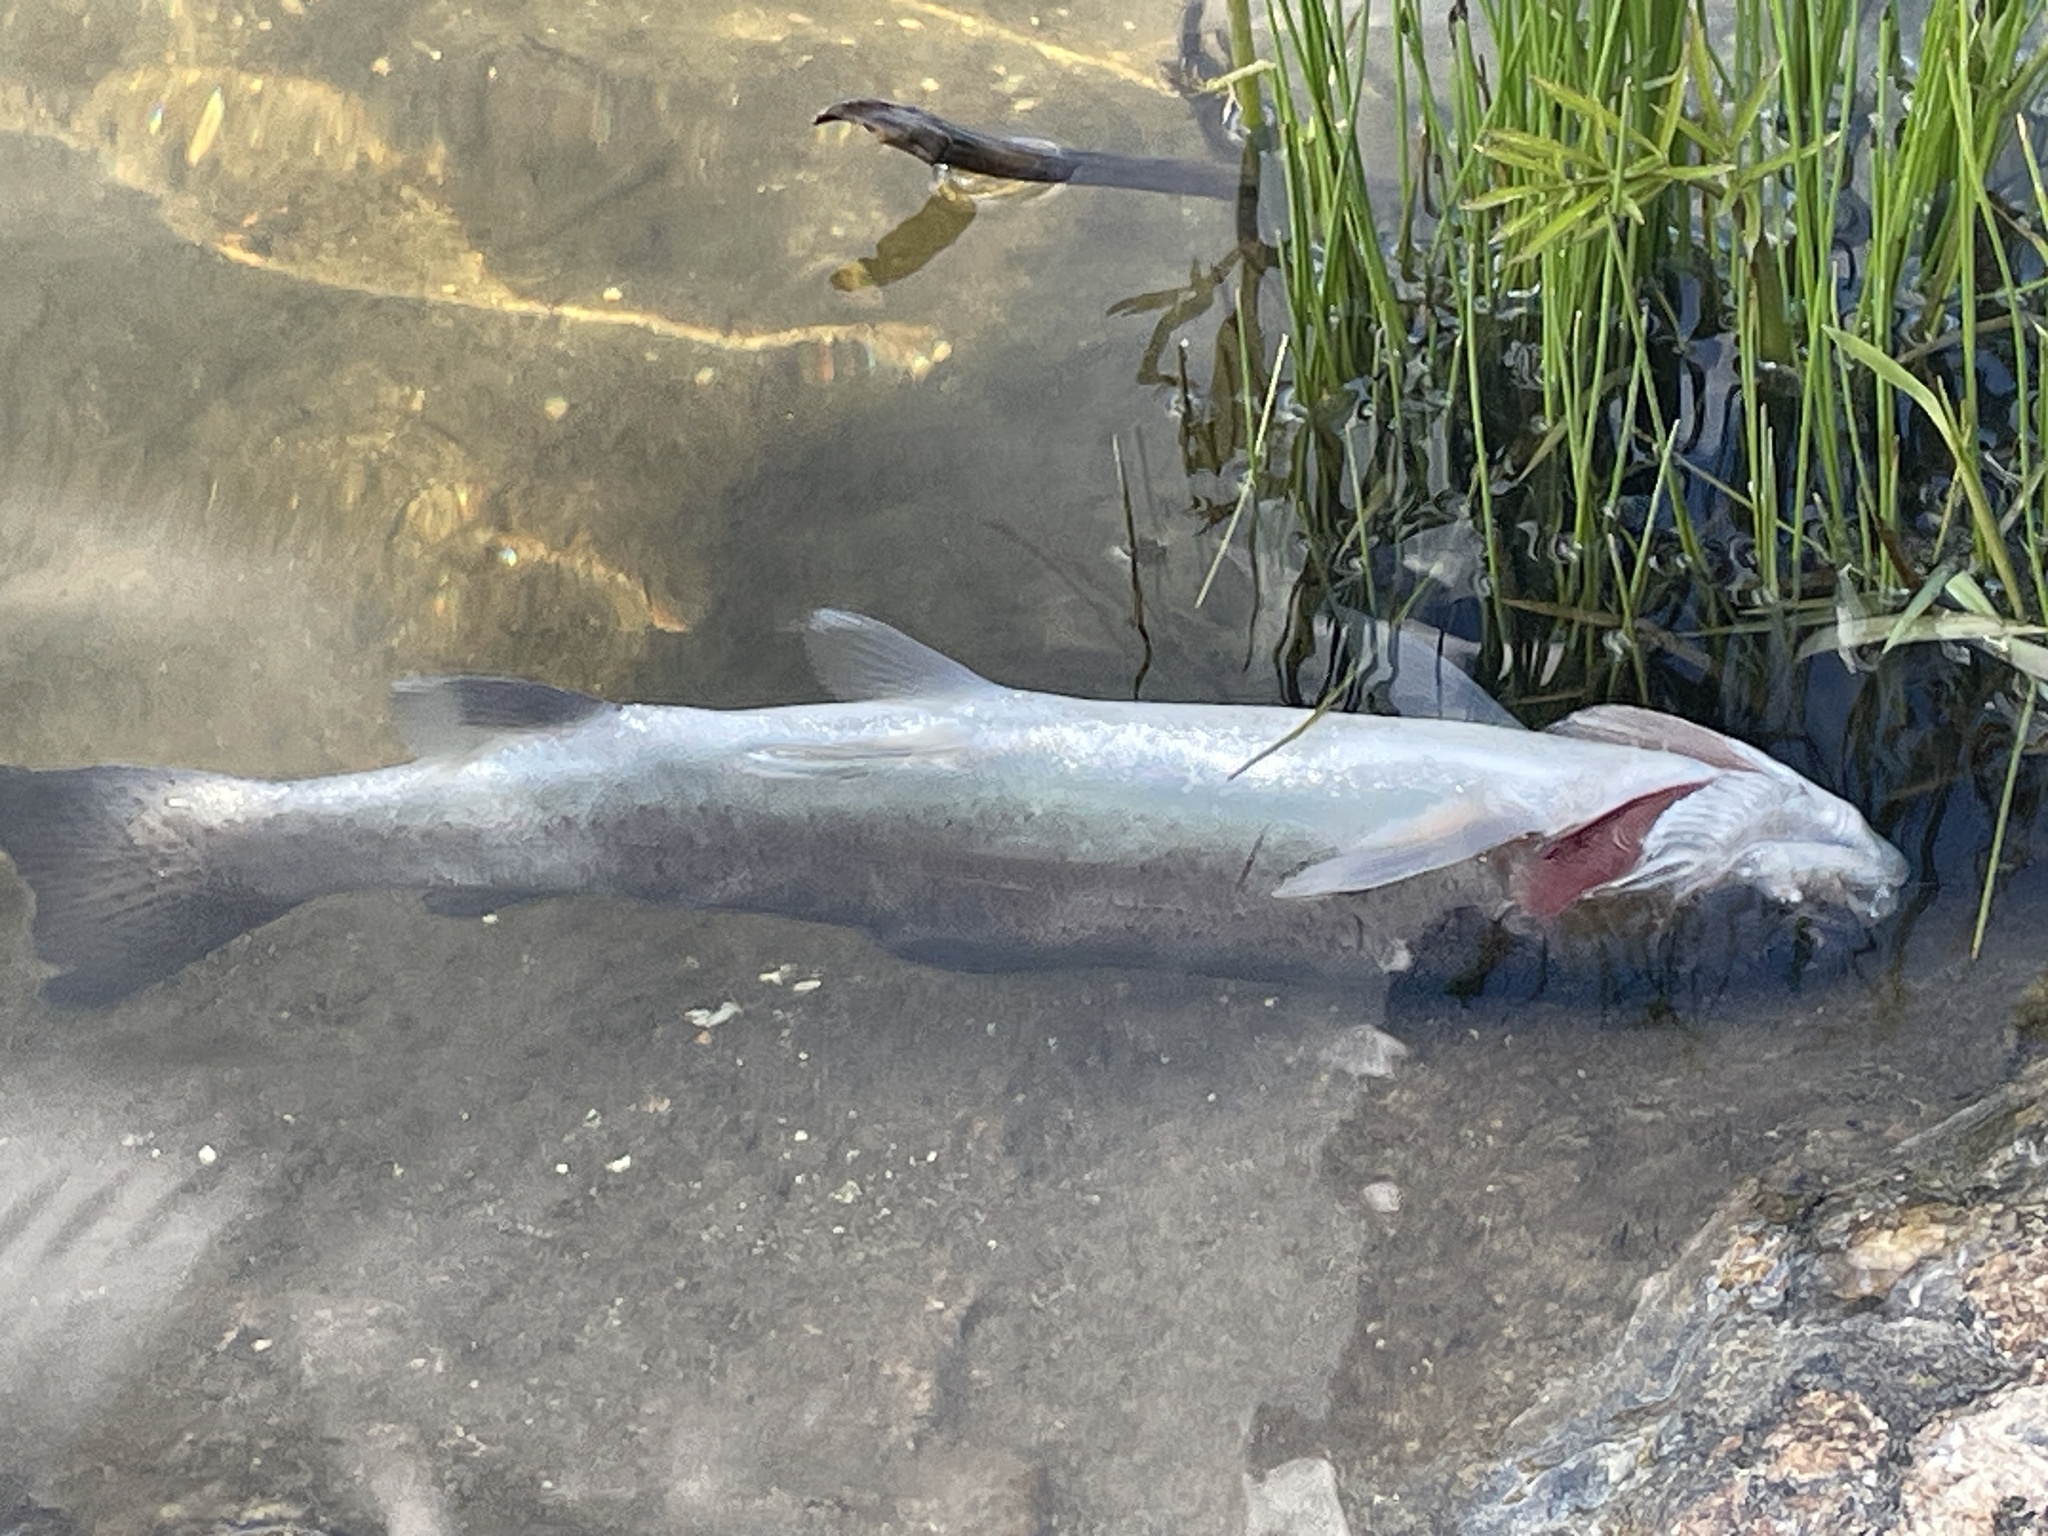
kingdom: Animalia
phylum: Chordata
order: Salmoniformes
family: Salmonidae
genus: Oncorhynchus
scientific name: Oncorhynchus mykiss
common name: Rainbow trout
